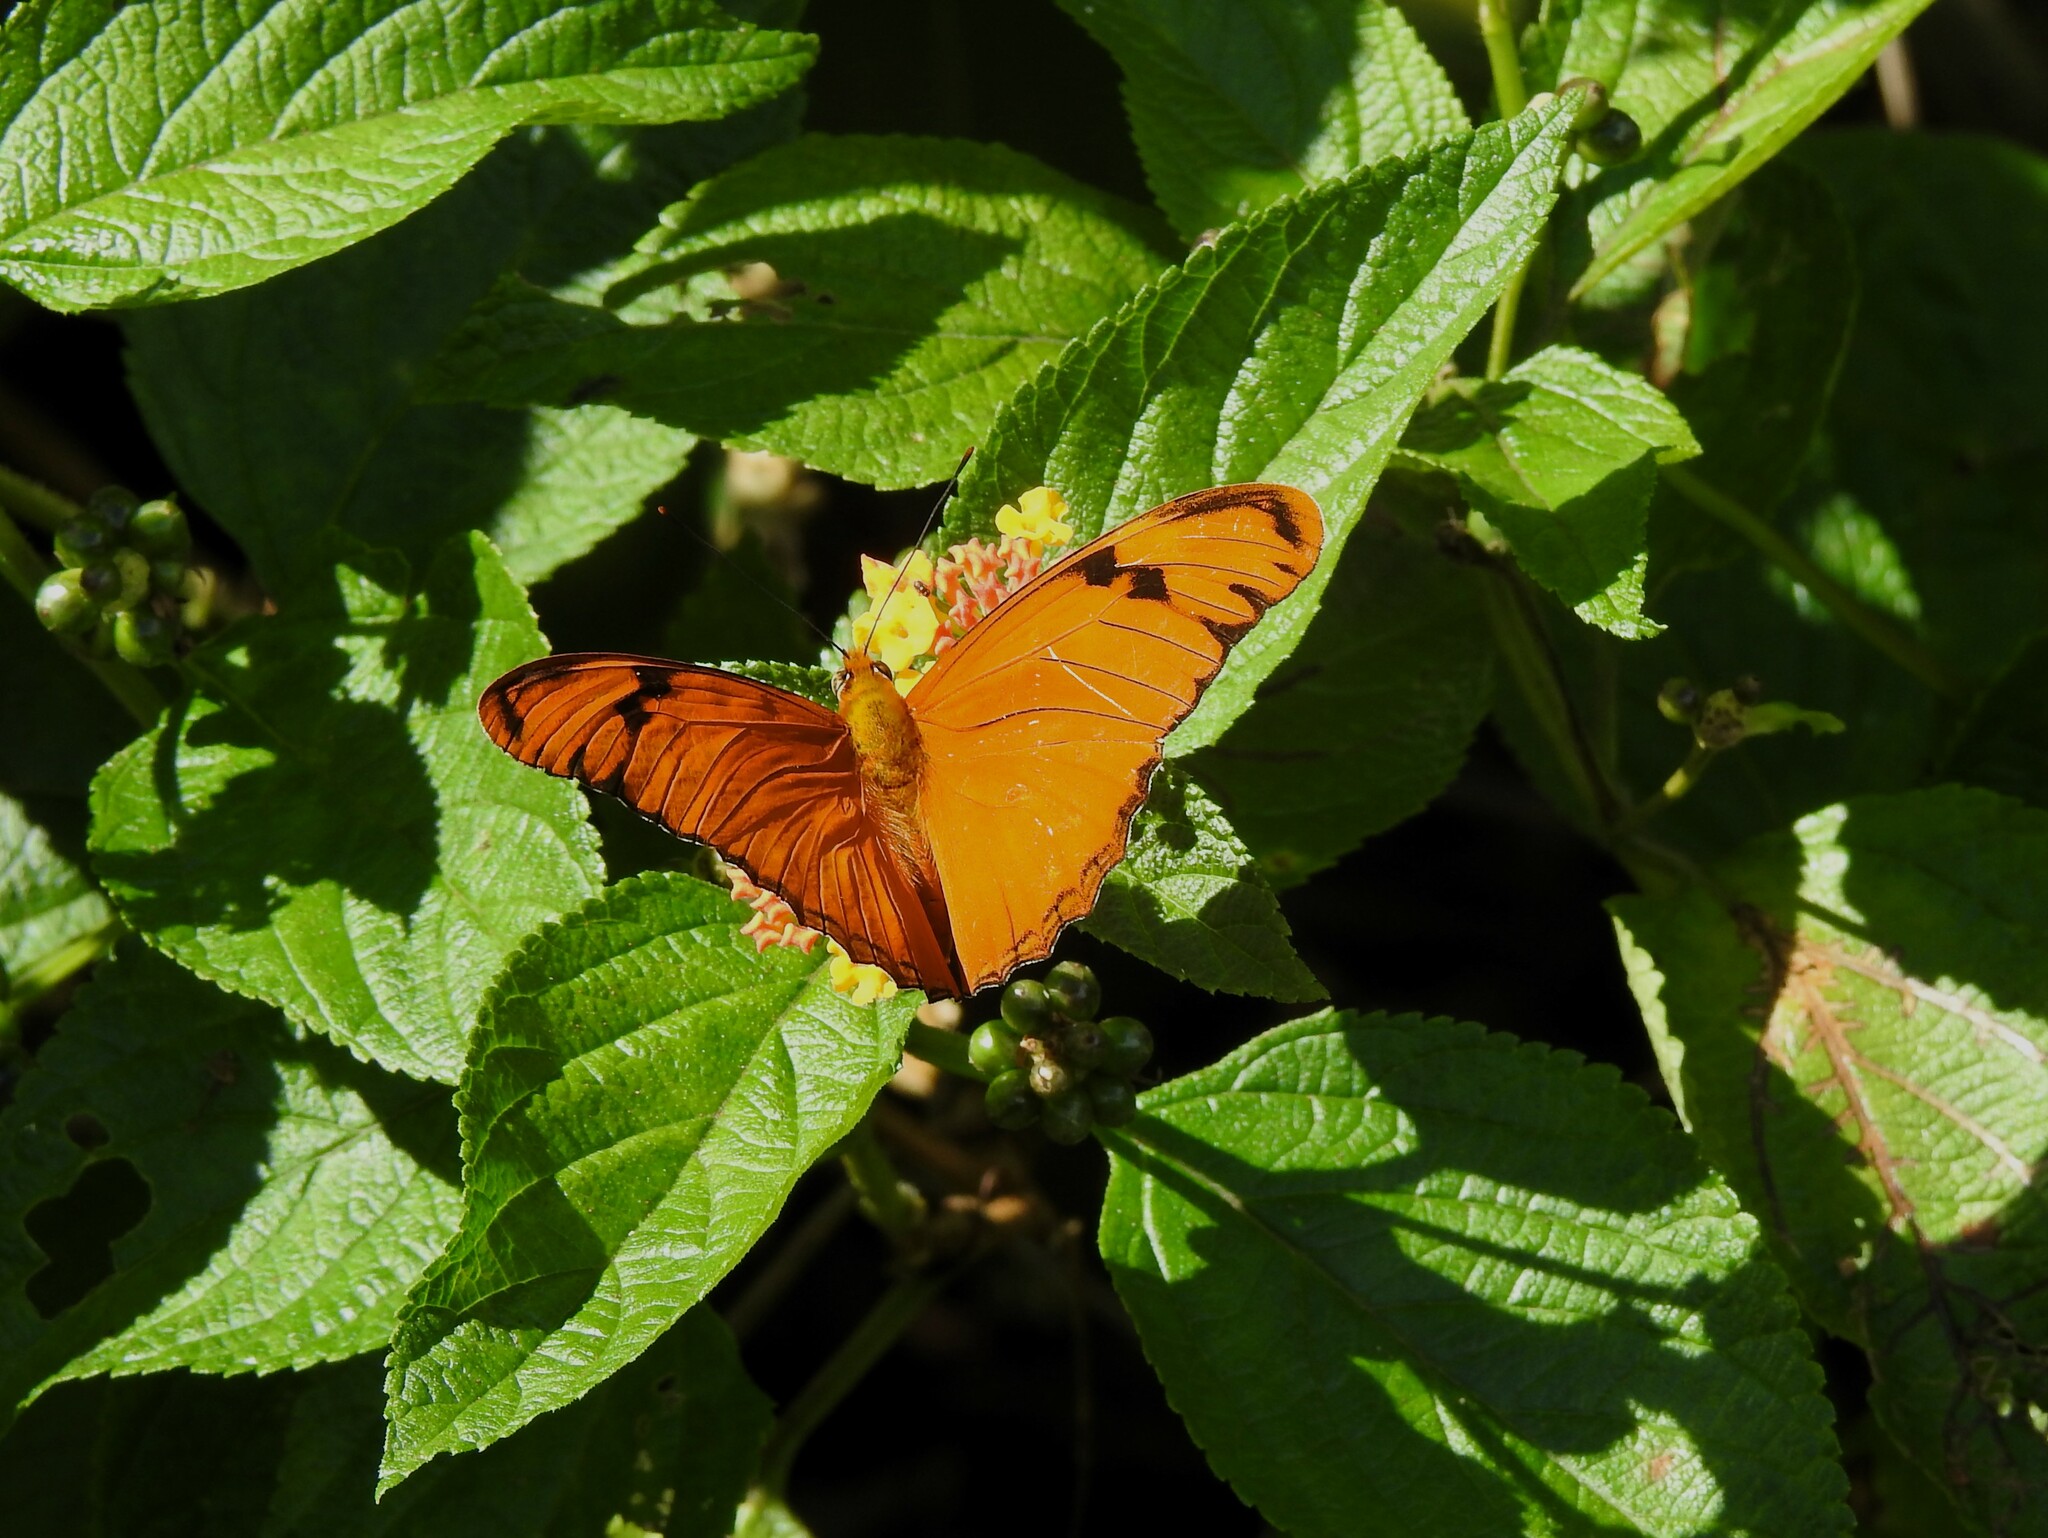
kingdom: Animalia
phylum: Arthropoda
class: Insecta
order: Lepidoptera
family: Nymphalidae
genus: Dryas
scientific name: Dryas iulia
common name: Flambeau
